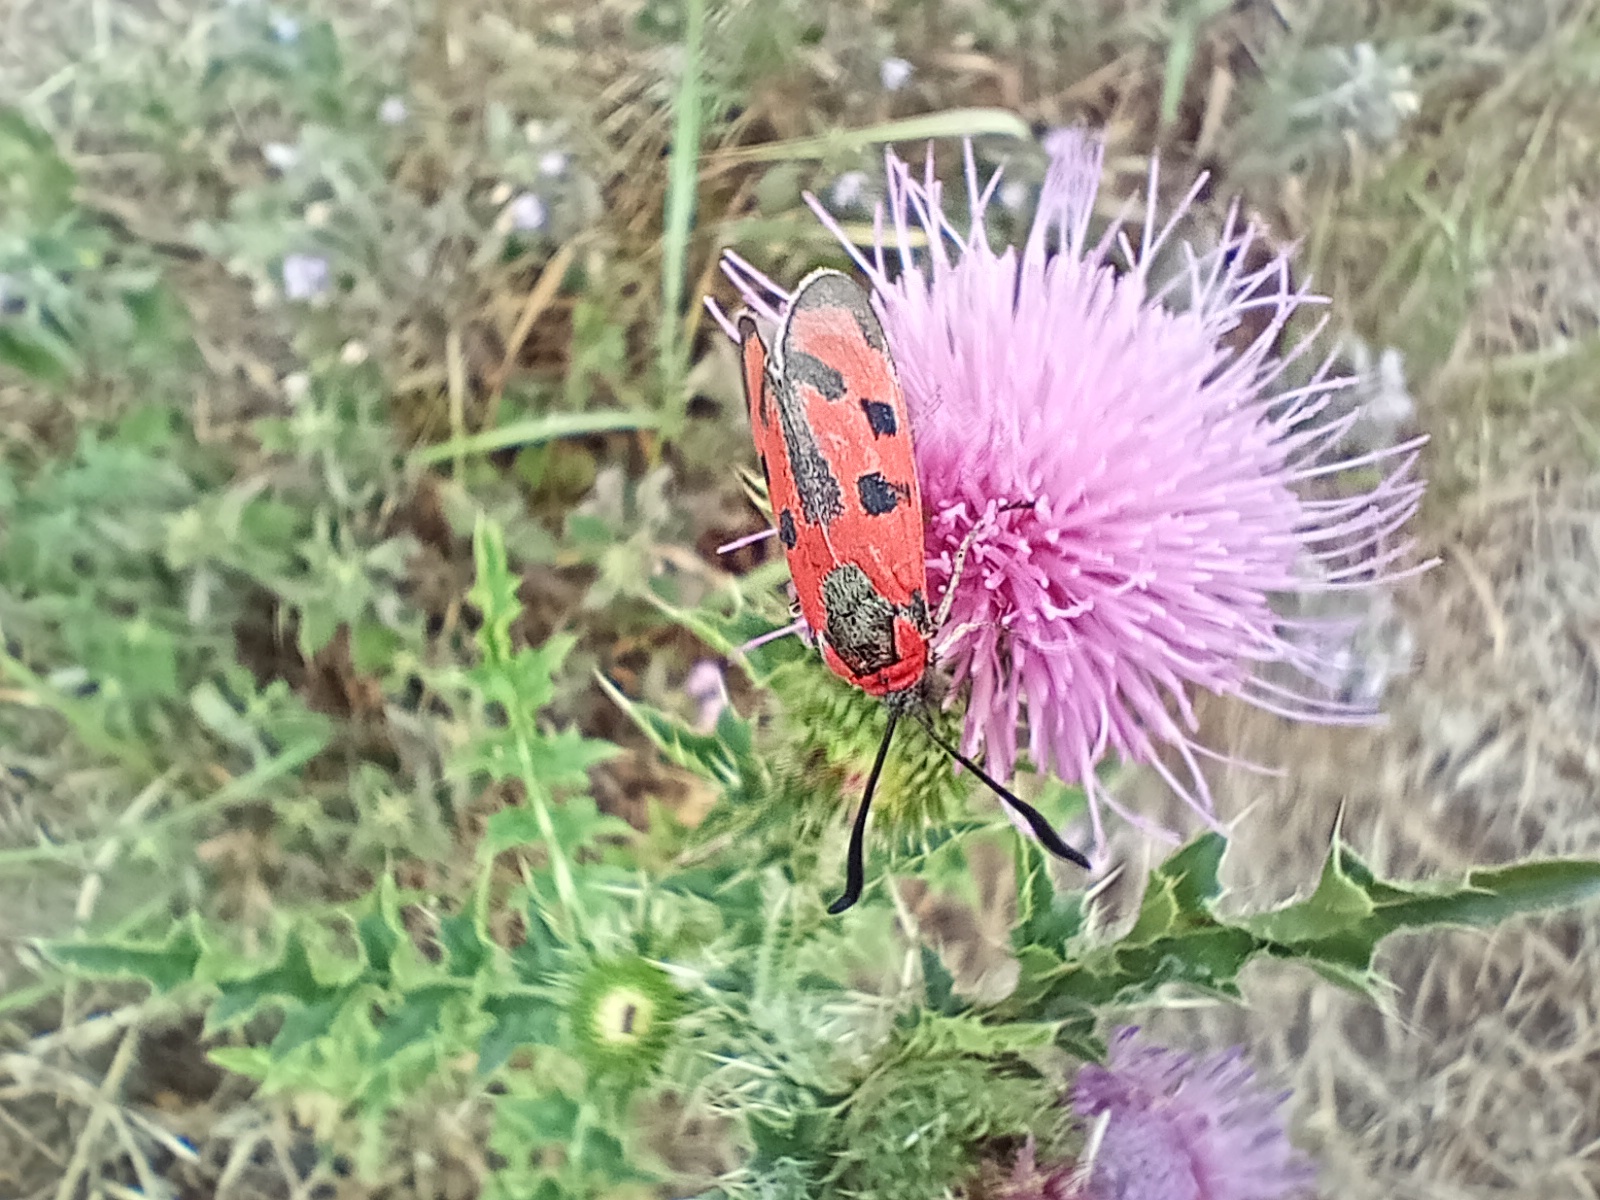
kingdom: Animalia
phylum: Arthropoda
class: Insecta
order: Lepidoptera
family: Zygaenidae
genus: Zygaena
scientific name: Zygaena laeta
